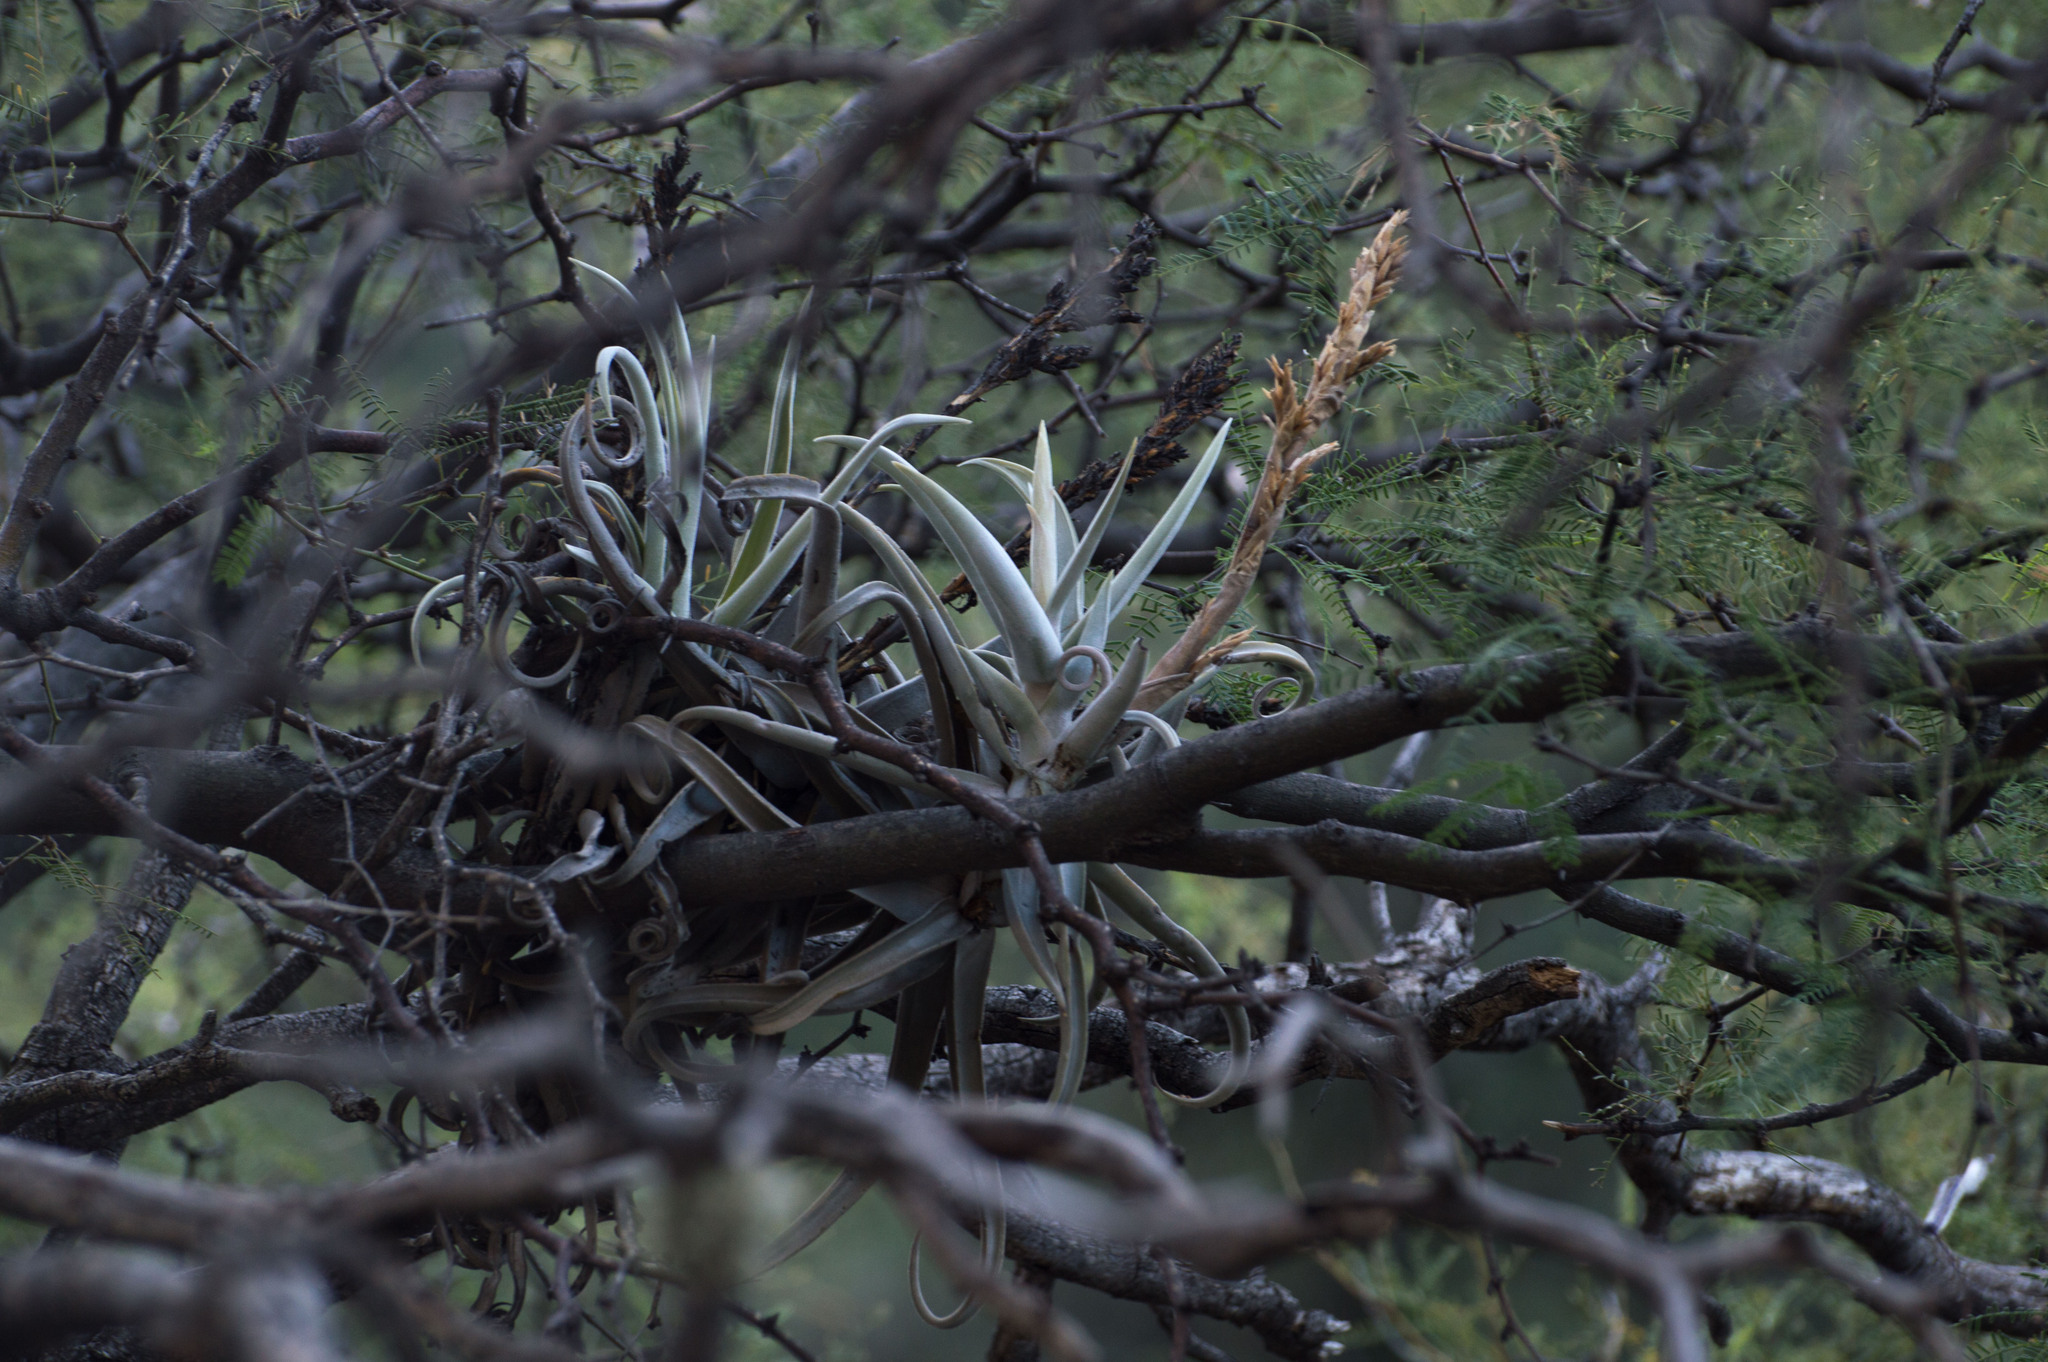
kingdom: Plantae
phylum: Tracheophyta
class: Liliopsida
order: Poales
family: Bromeliaceae
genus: Tillandsia
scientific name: Tillandsia duratii
